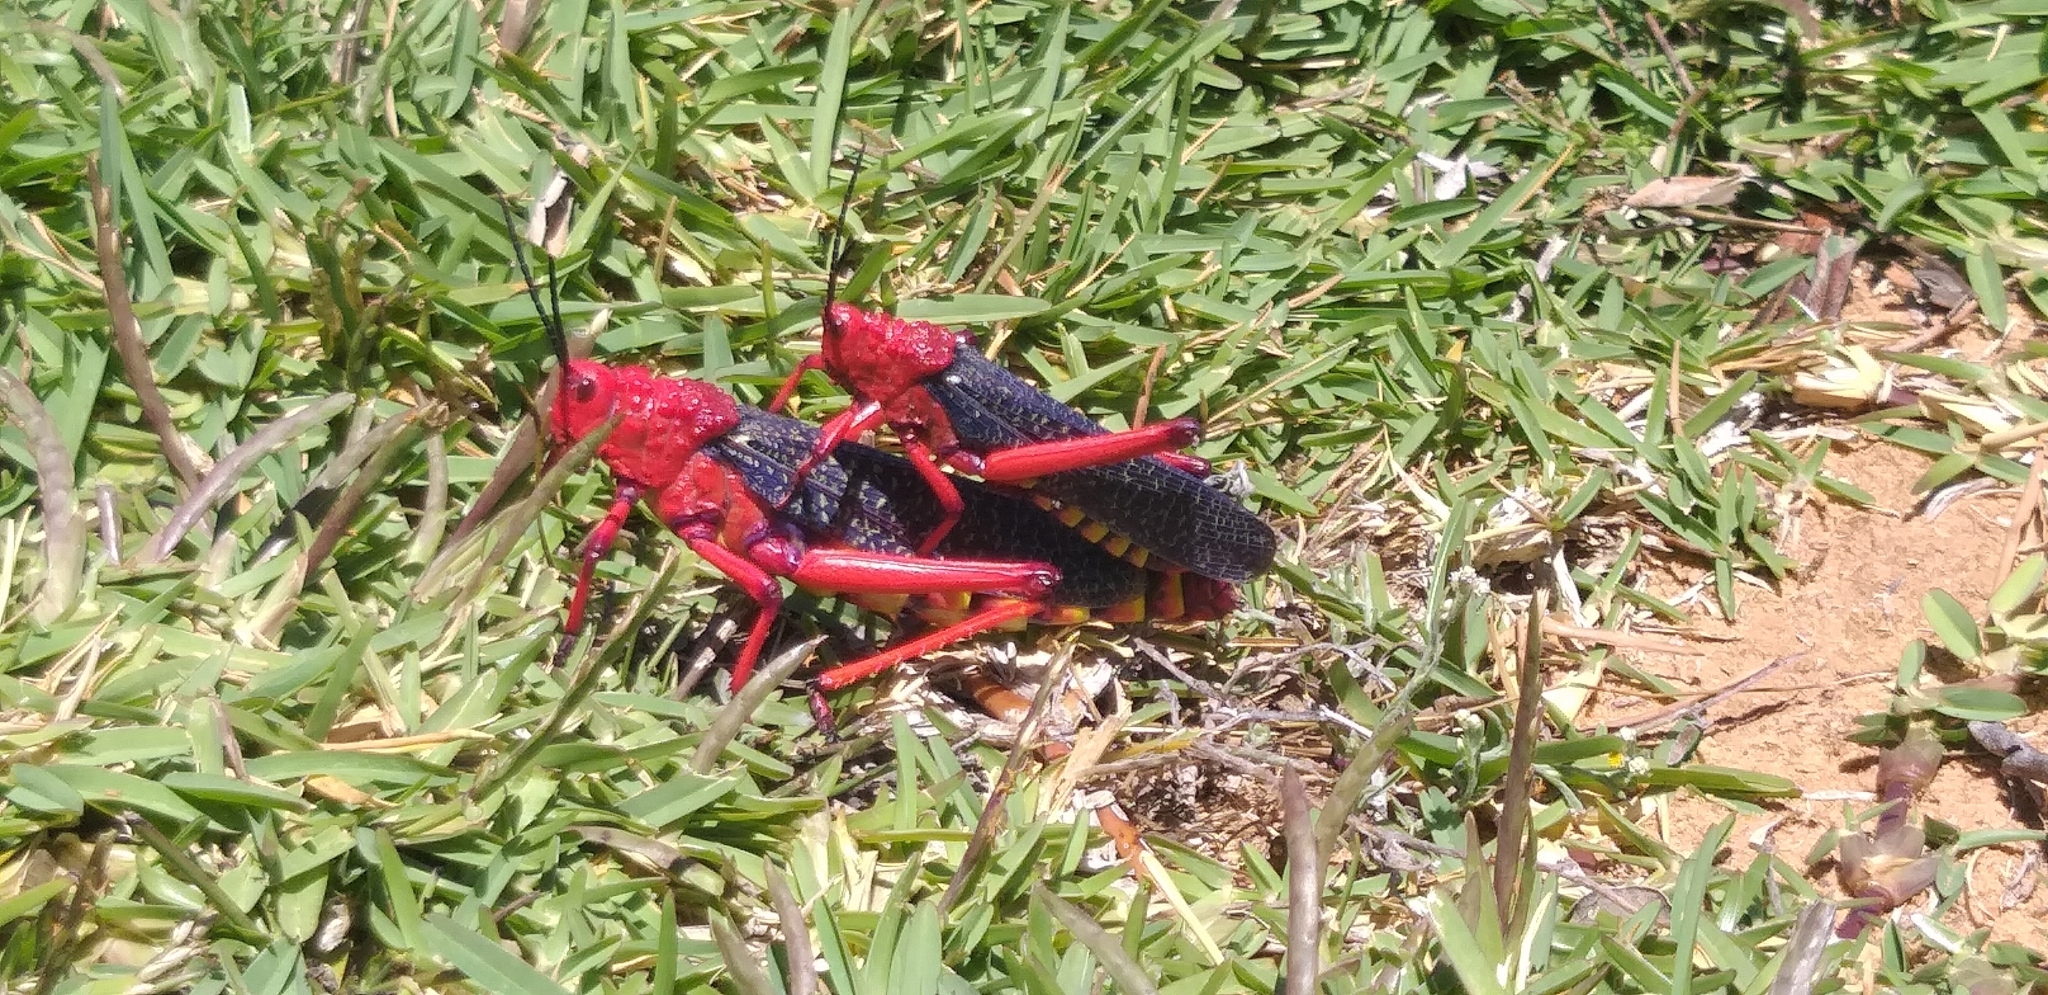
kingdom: Animalia
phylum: Arthropoda
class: Insecta
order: Orthoptera
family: Pyrgomorphidae
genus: Phymateus
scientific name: Phymateus morbillosus
